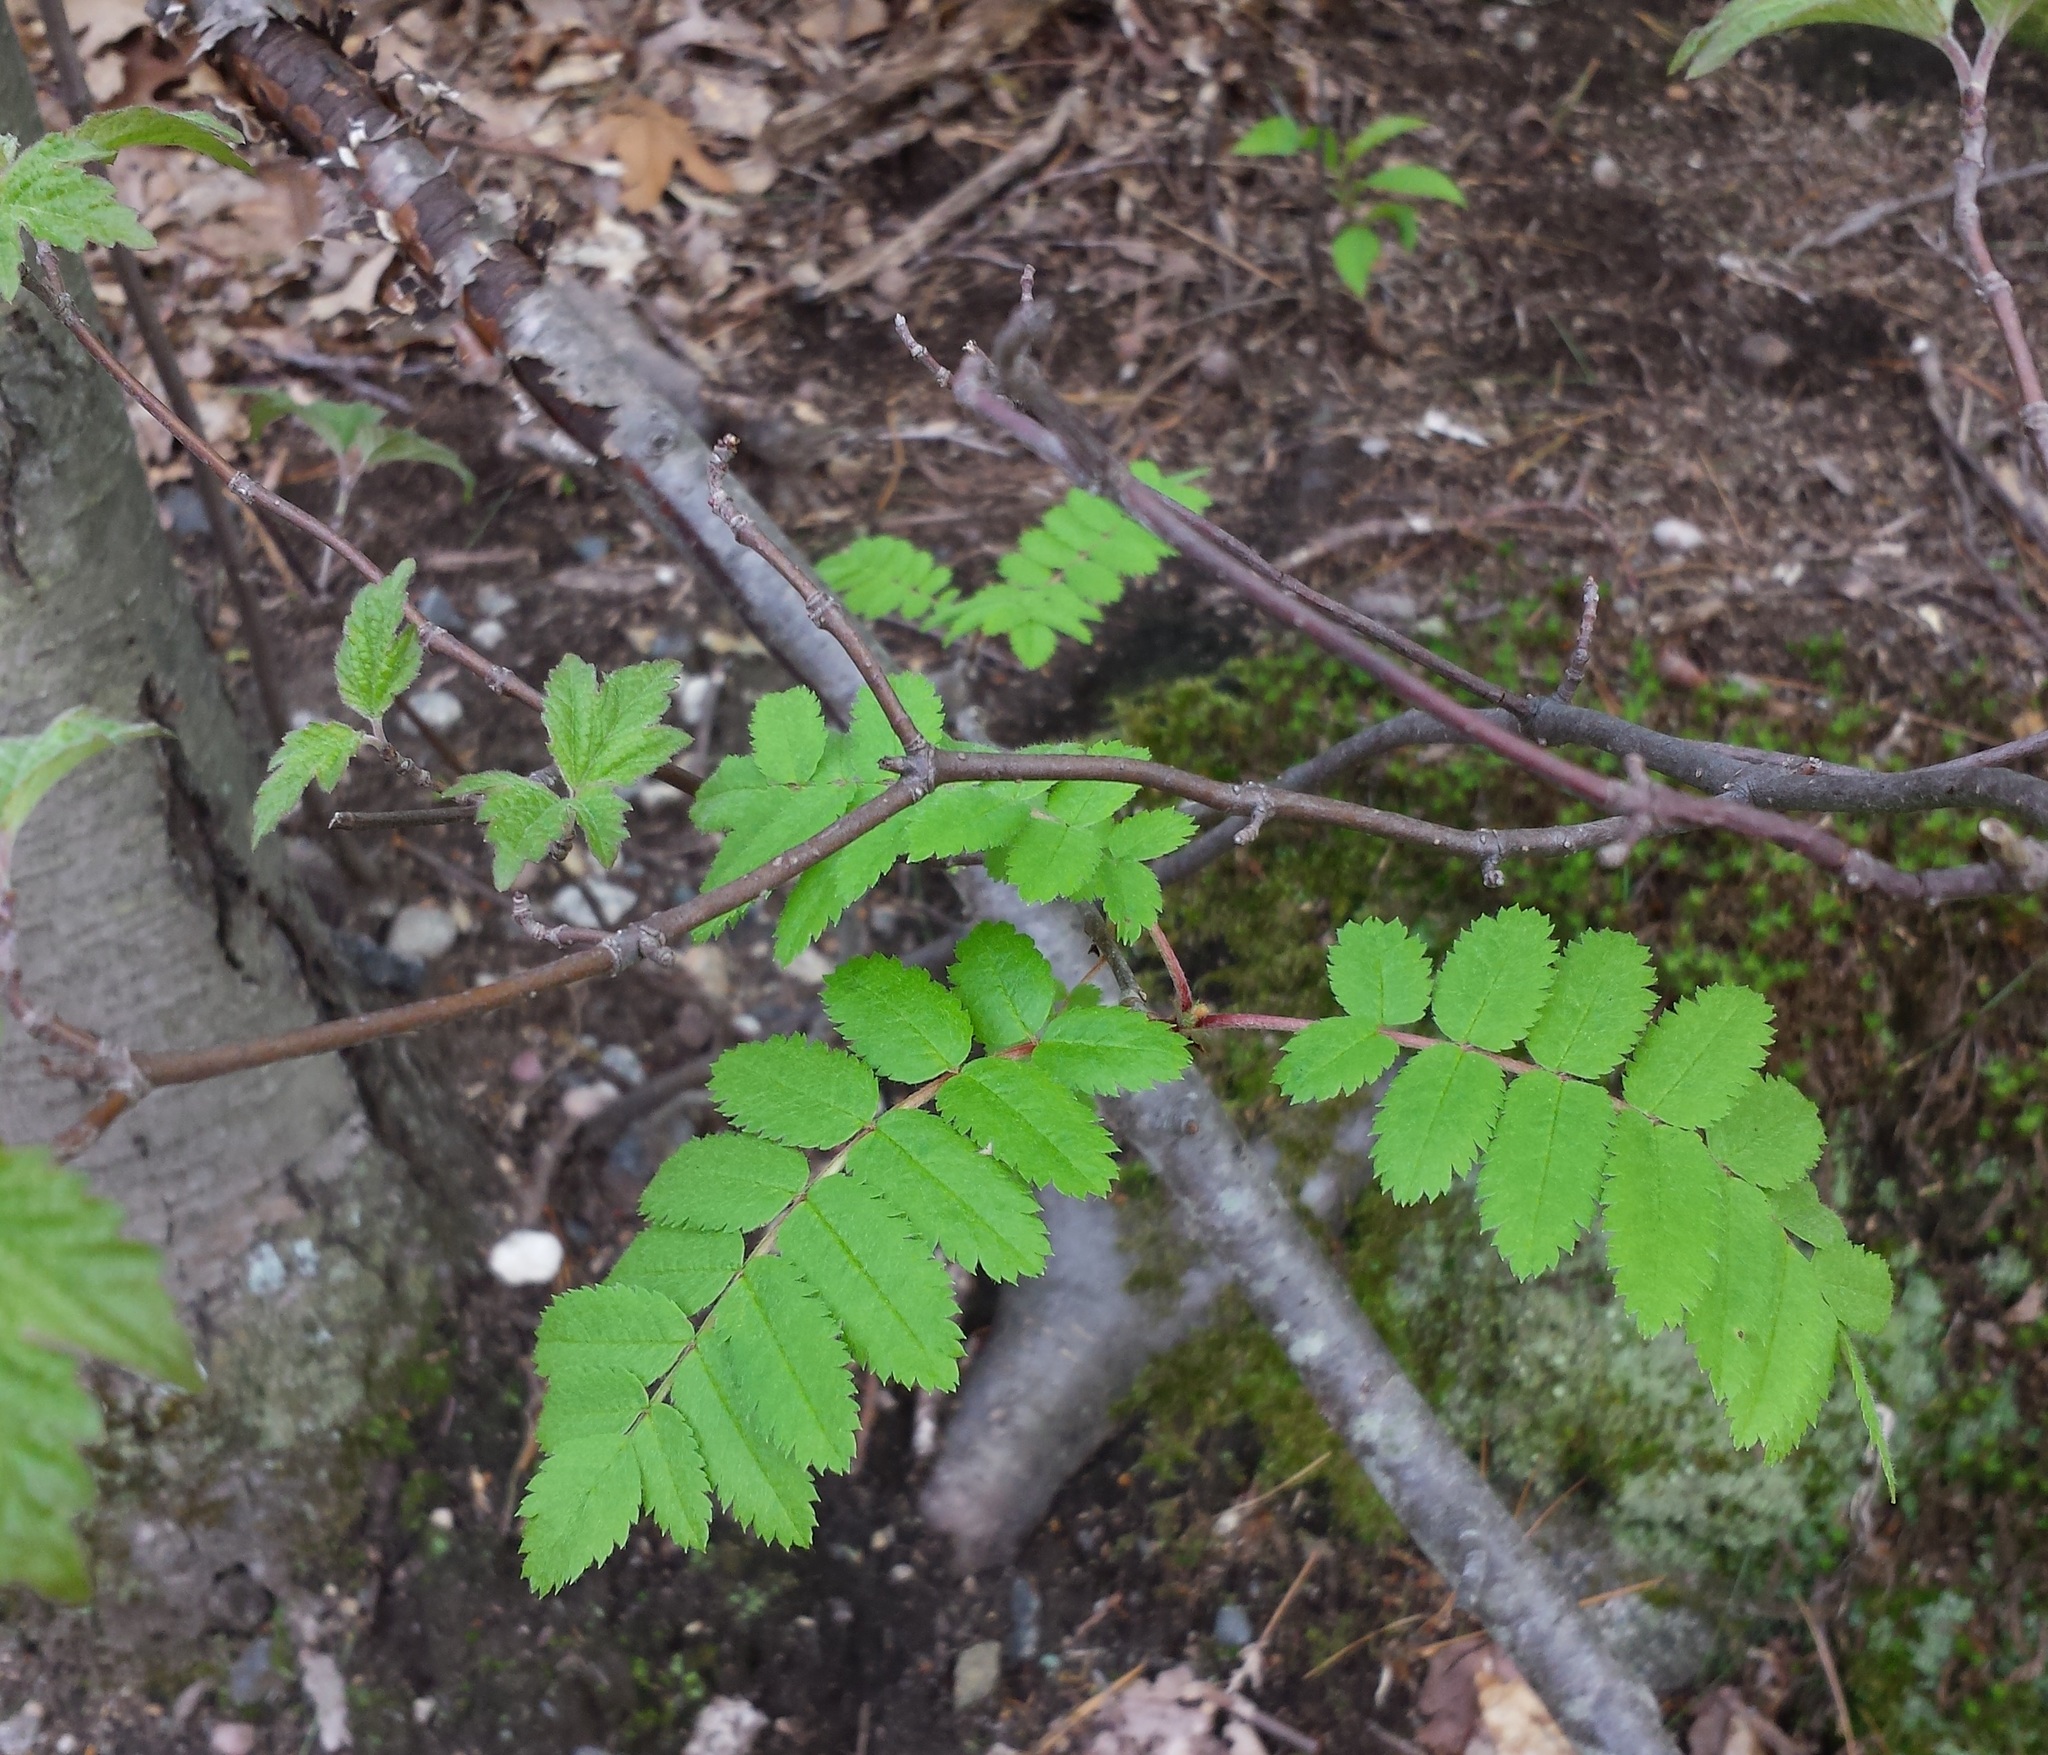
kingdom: Plantae
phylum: Tracheophyta
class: Magnoliopsida
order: Rosales
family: Rosaceae
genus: Sorbus
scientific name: Sorbus aucuparia
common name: Rowan
